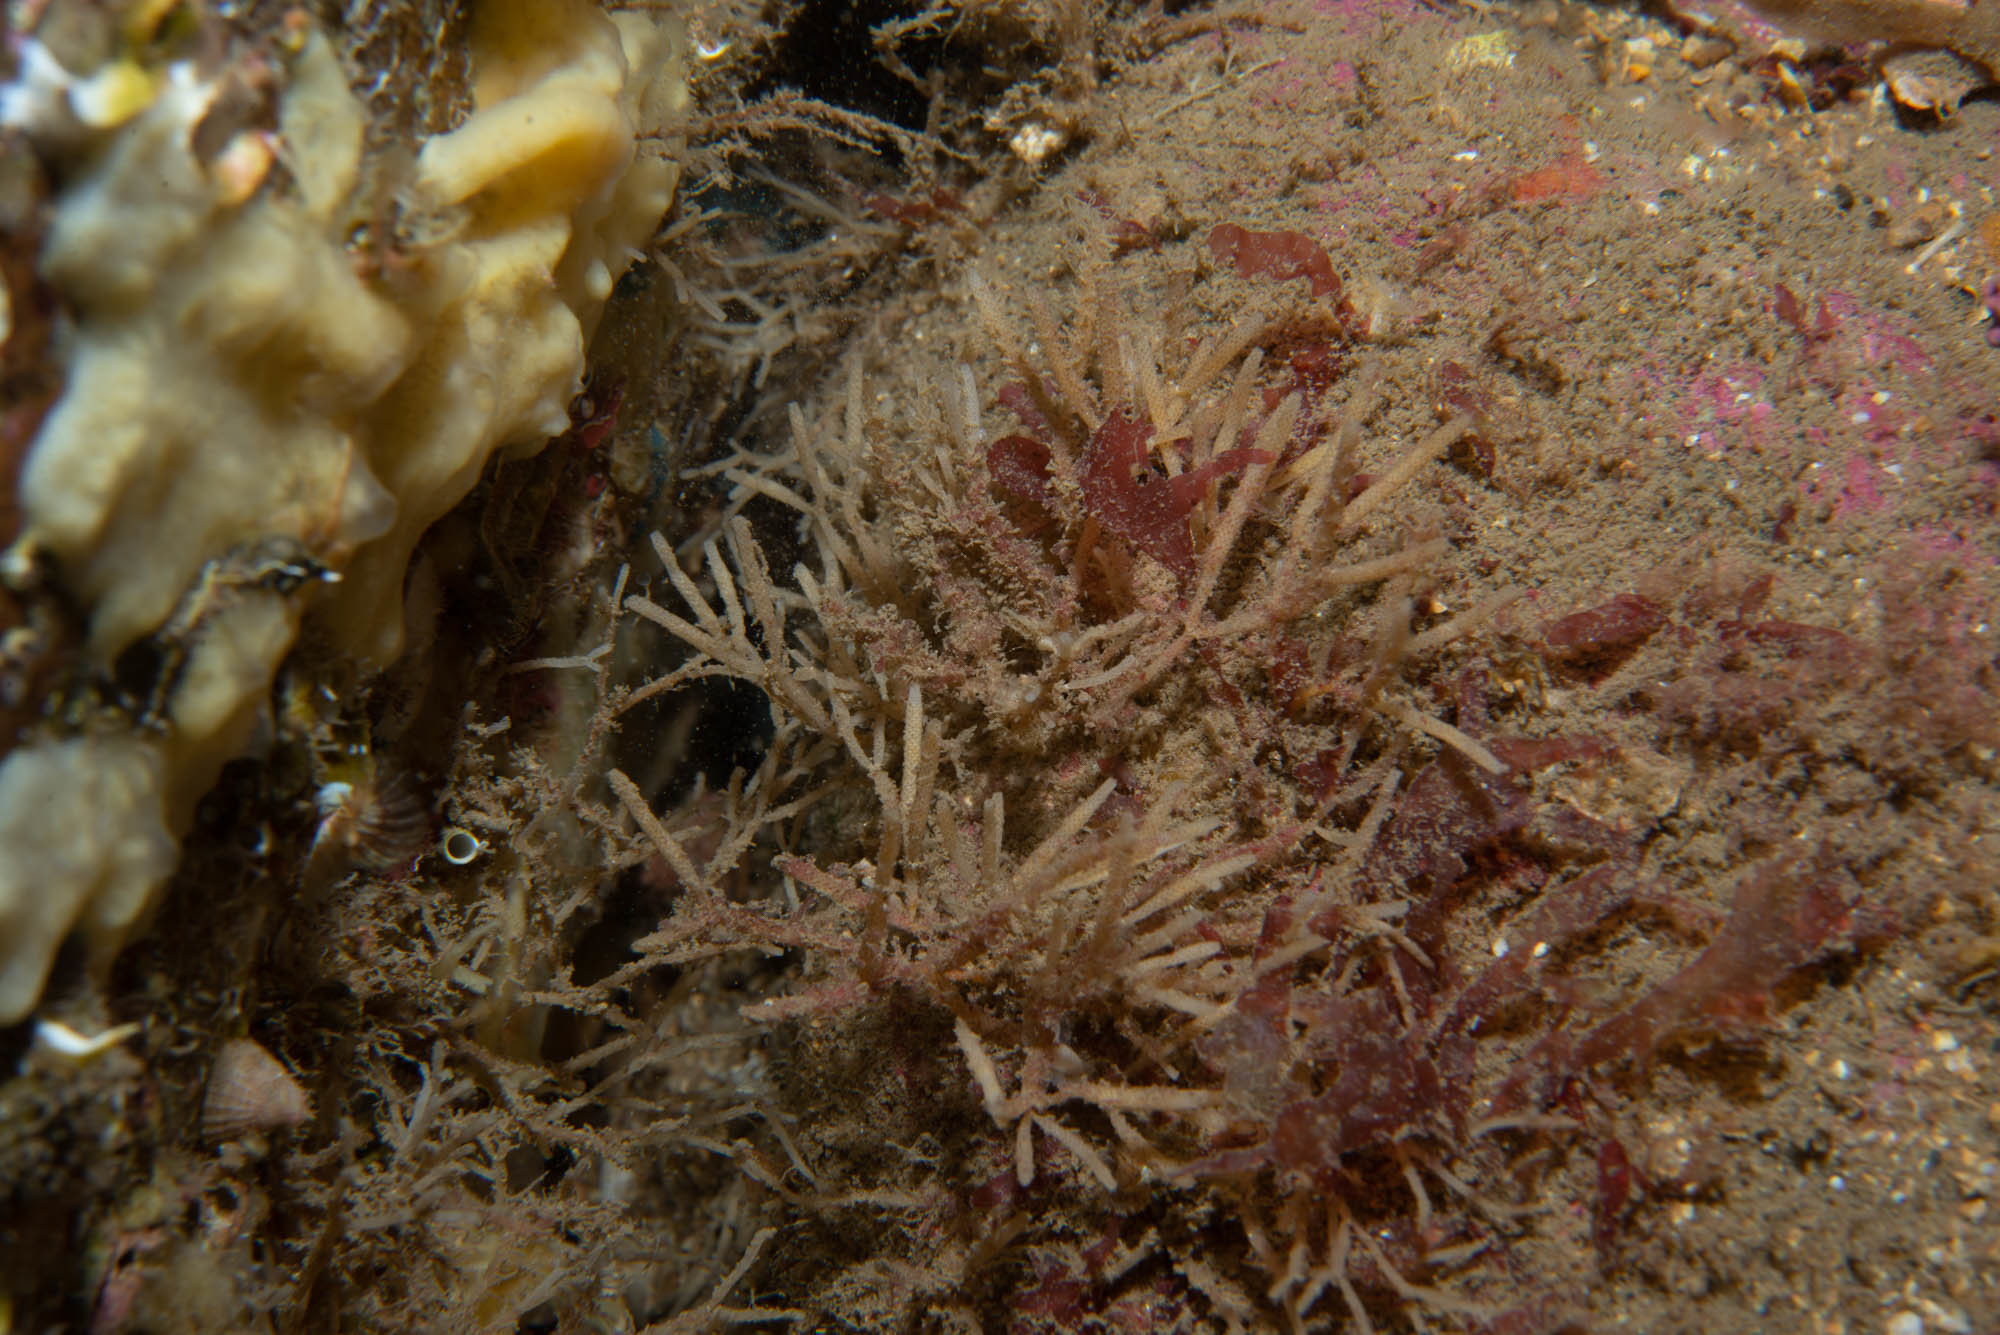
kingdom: Animalia
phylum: Bryozoa
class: Gymnolaemata
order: Cheilostomatida
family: Cellariidae
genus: Cellaria
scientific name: Cellaria fistulosa
